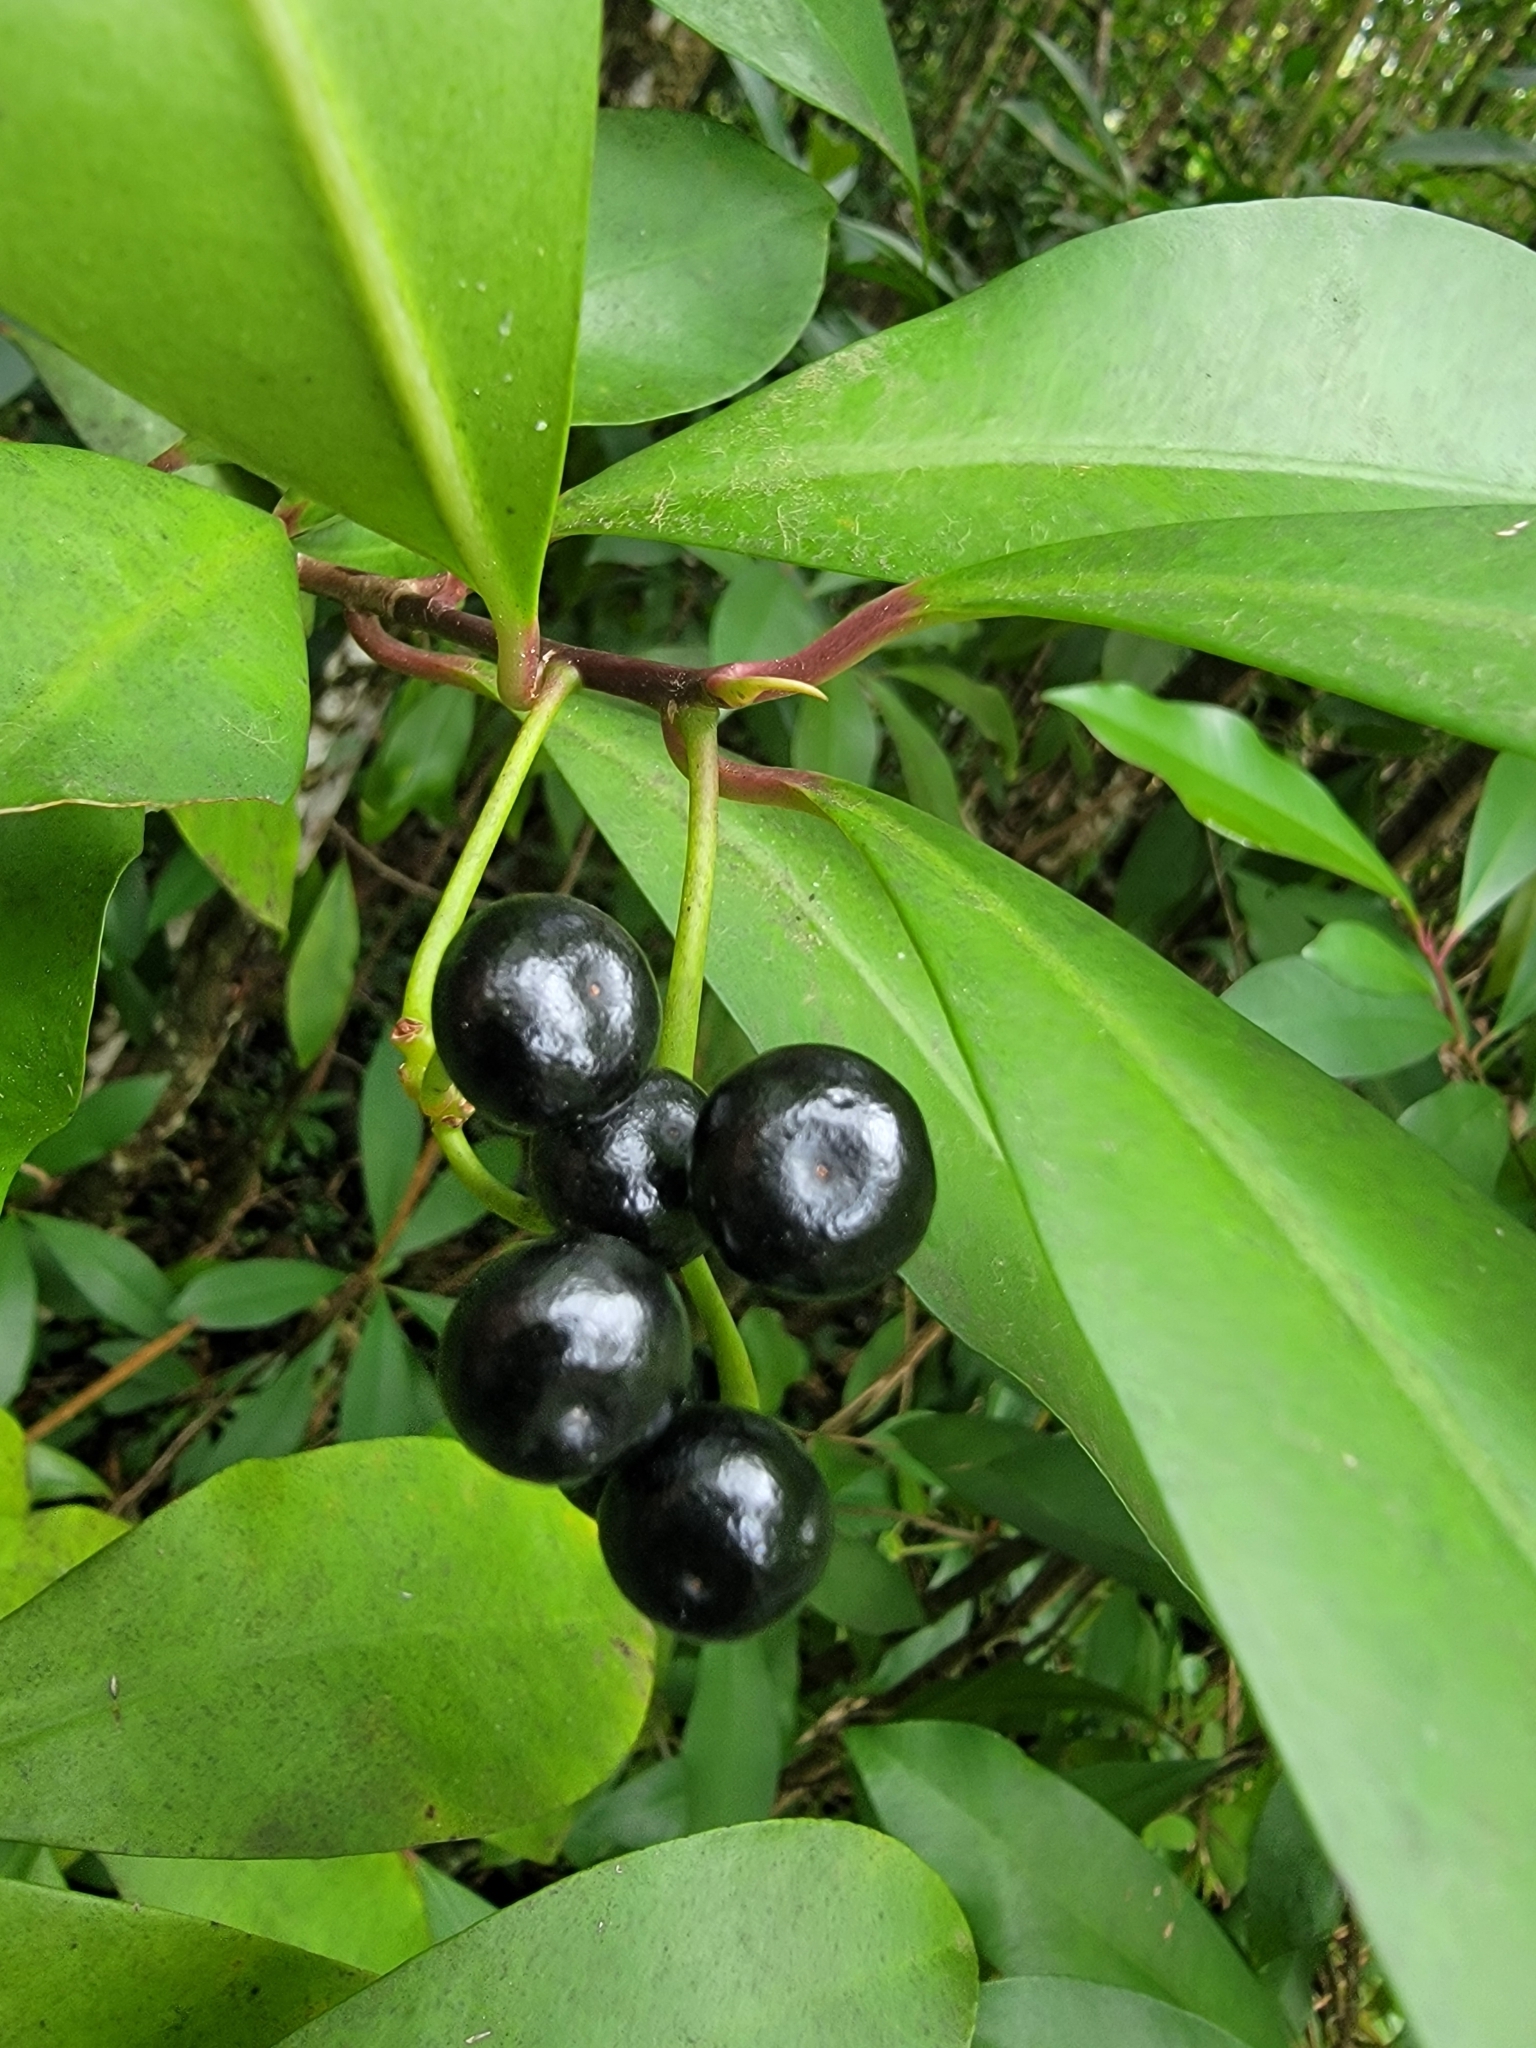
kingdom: Plantae
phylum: Tracheophyta
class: Magnoliopsida
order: Ericales
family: Primulaceae
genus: Ardisia
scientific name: Ardisia elliptica
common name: Shoebutton
